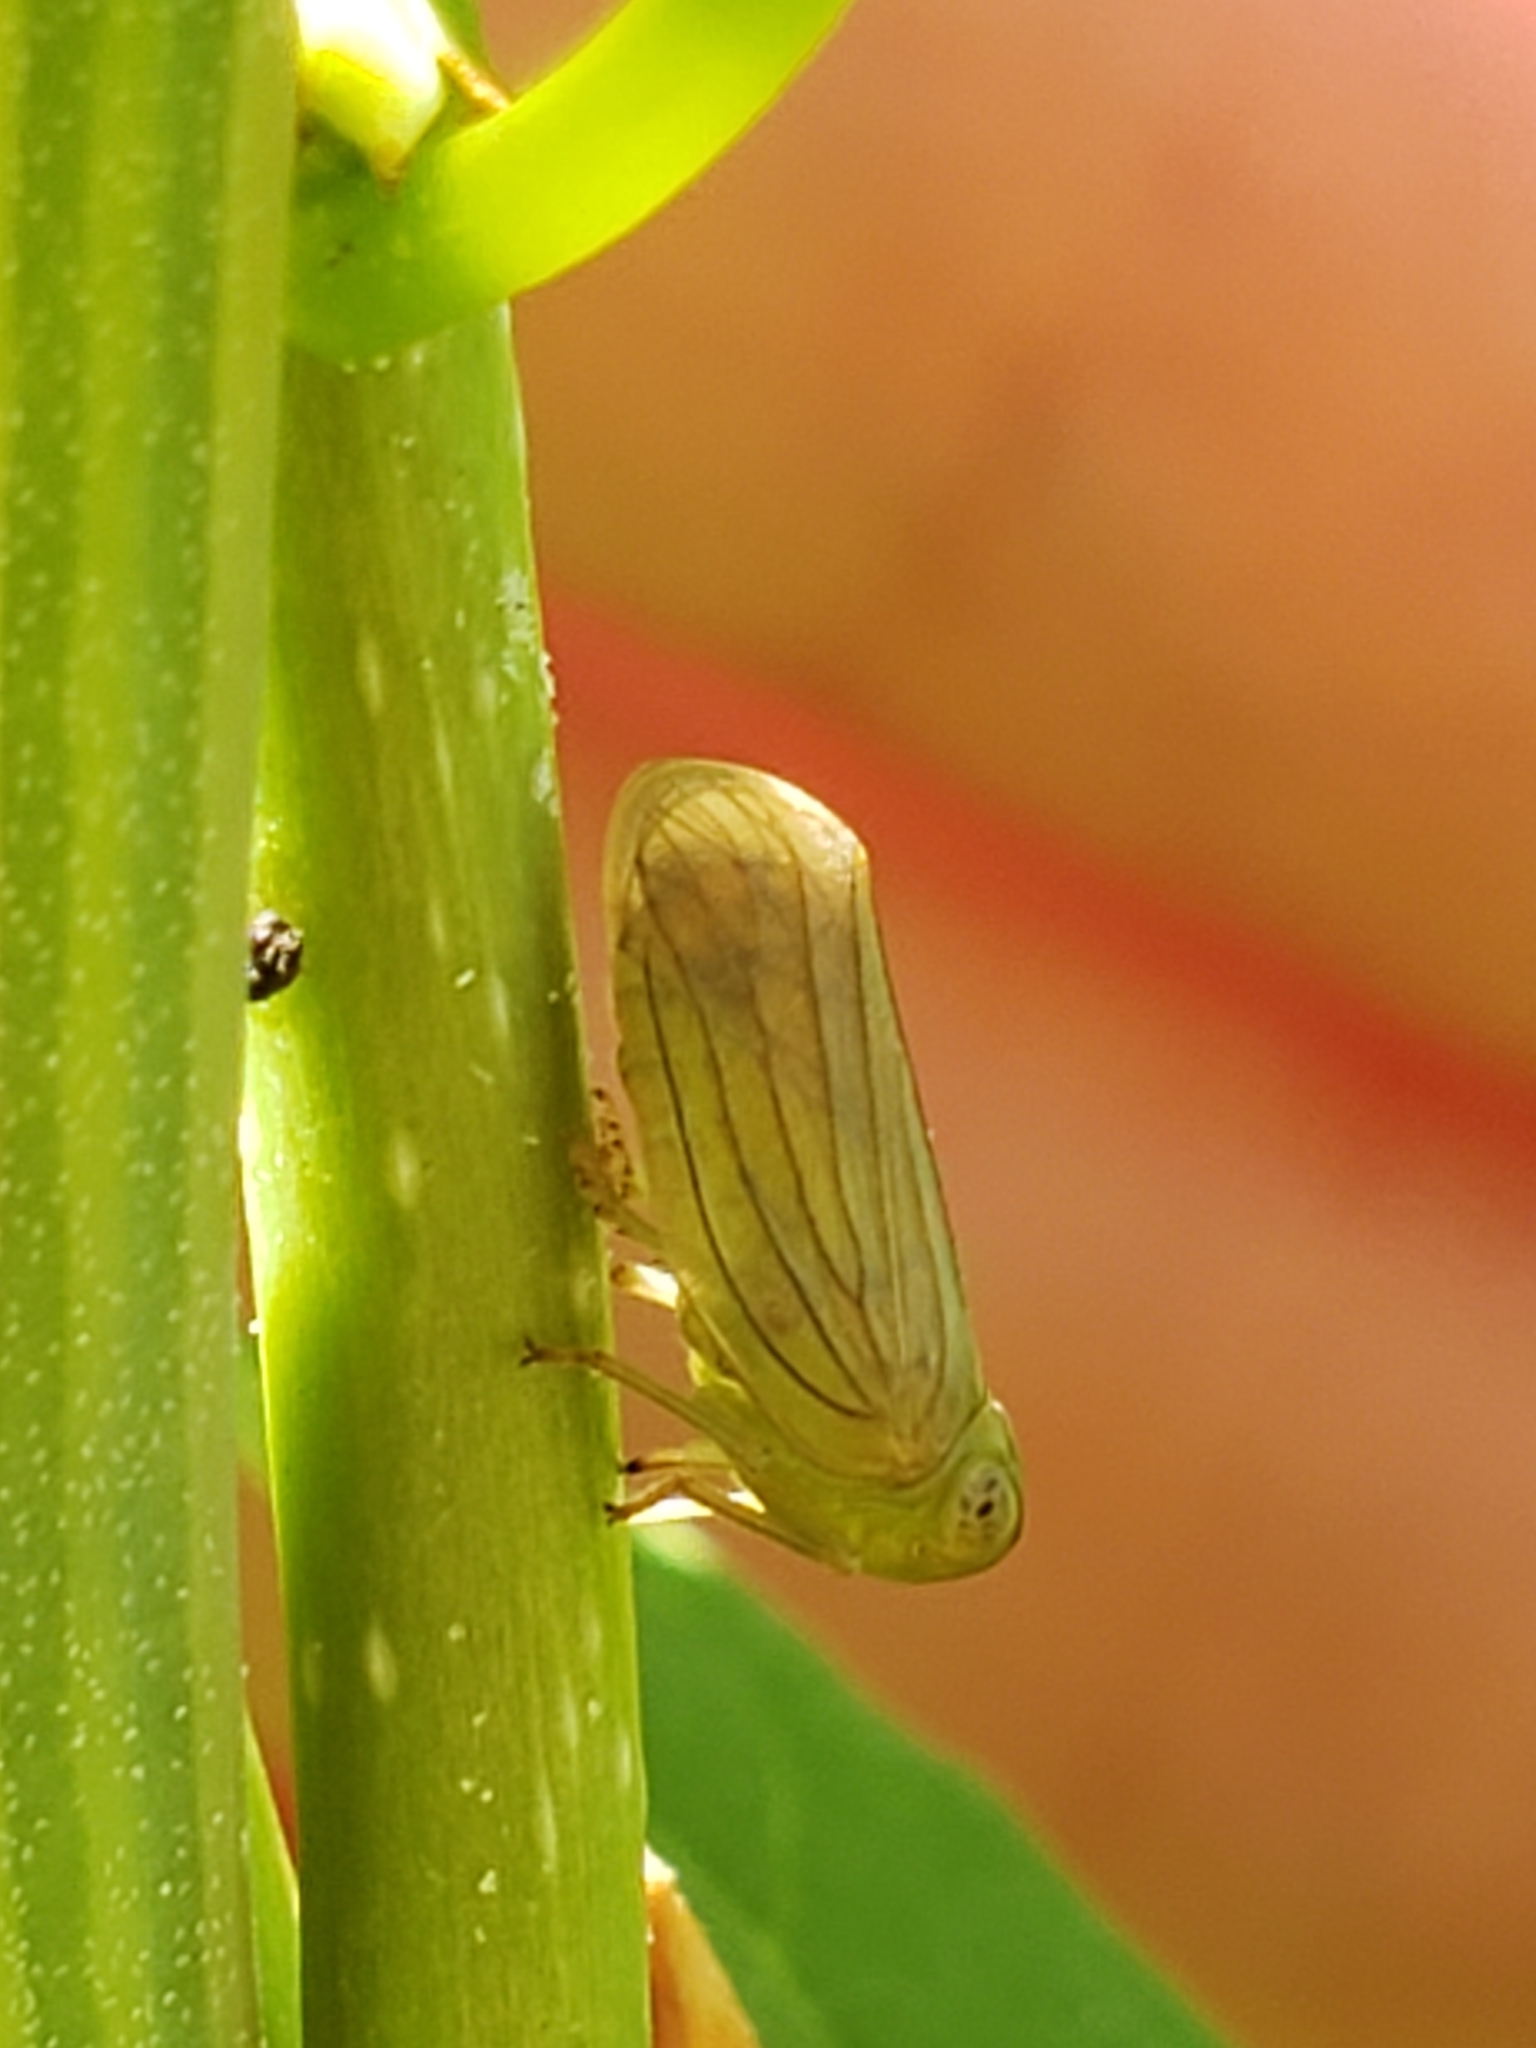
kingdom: Animalia
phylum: Arthropoda
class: Insecta
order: Hemiptera
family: Issidae
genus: Aplos
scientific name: Aplos simplex
